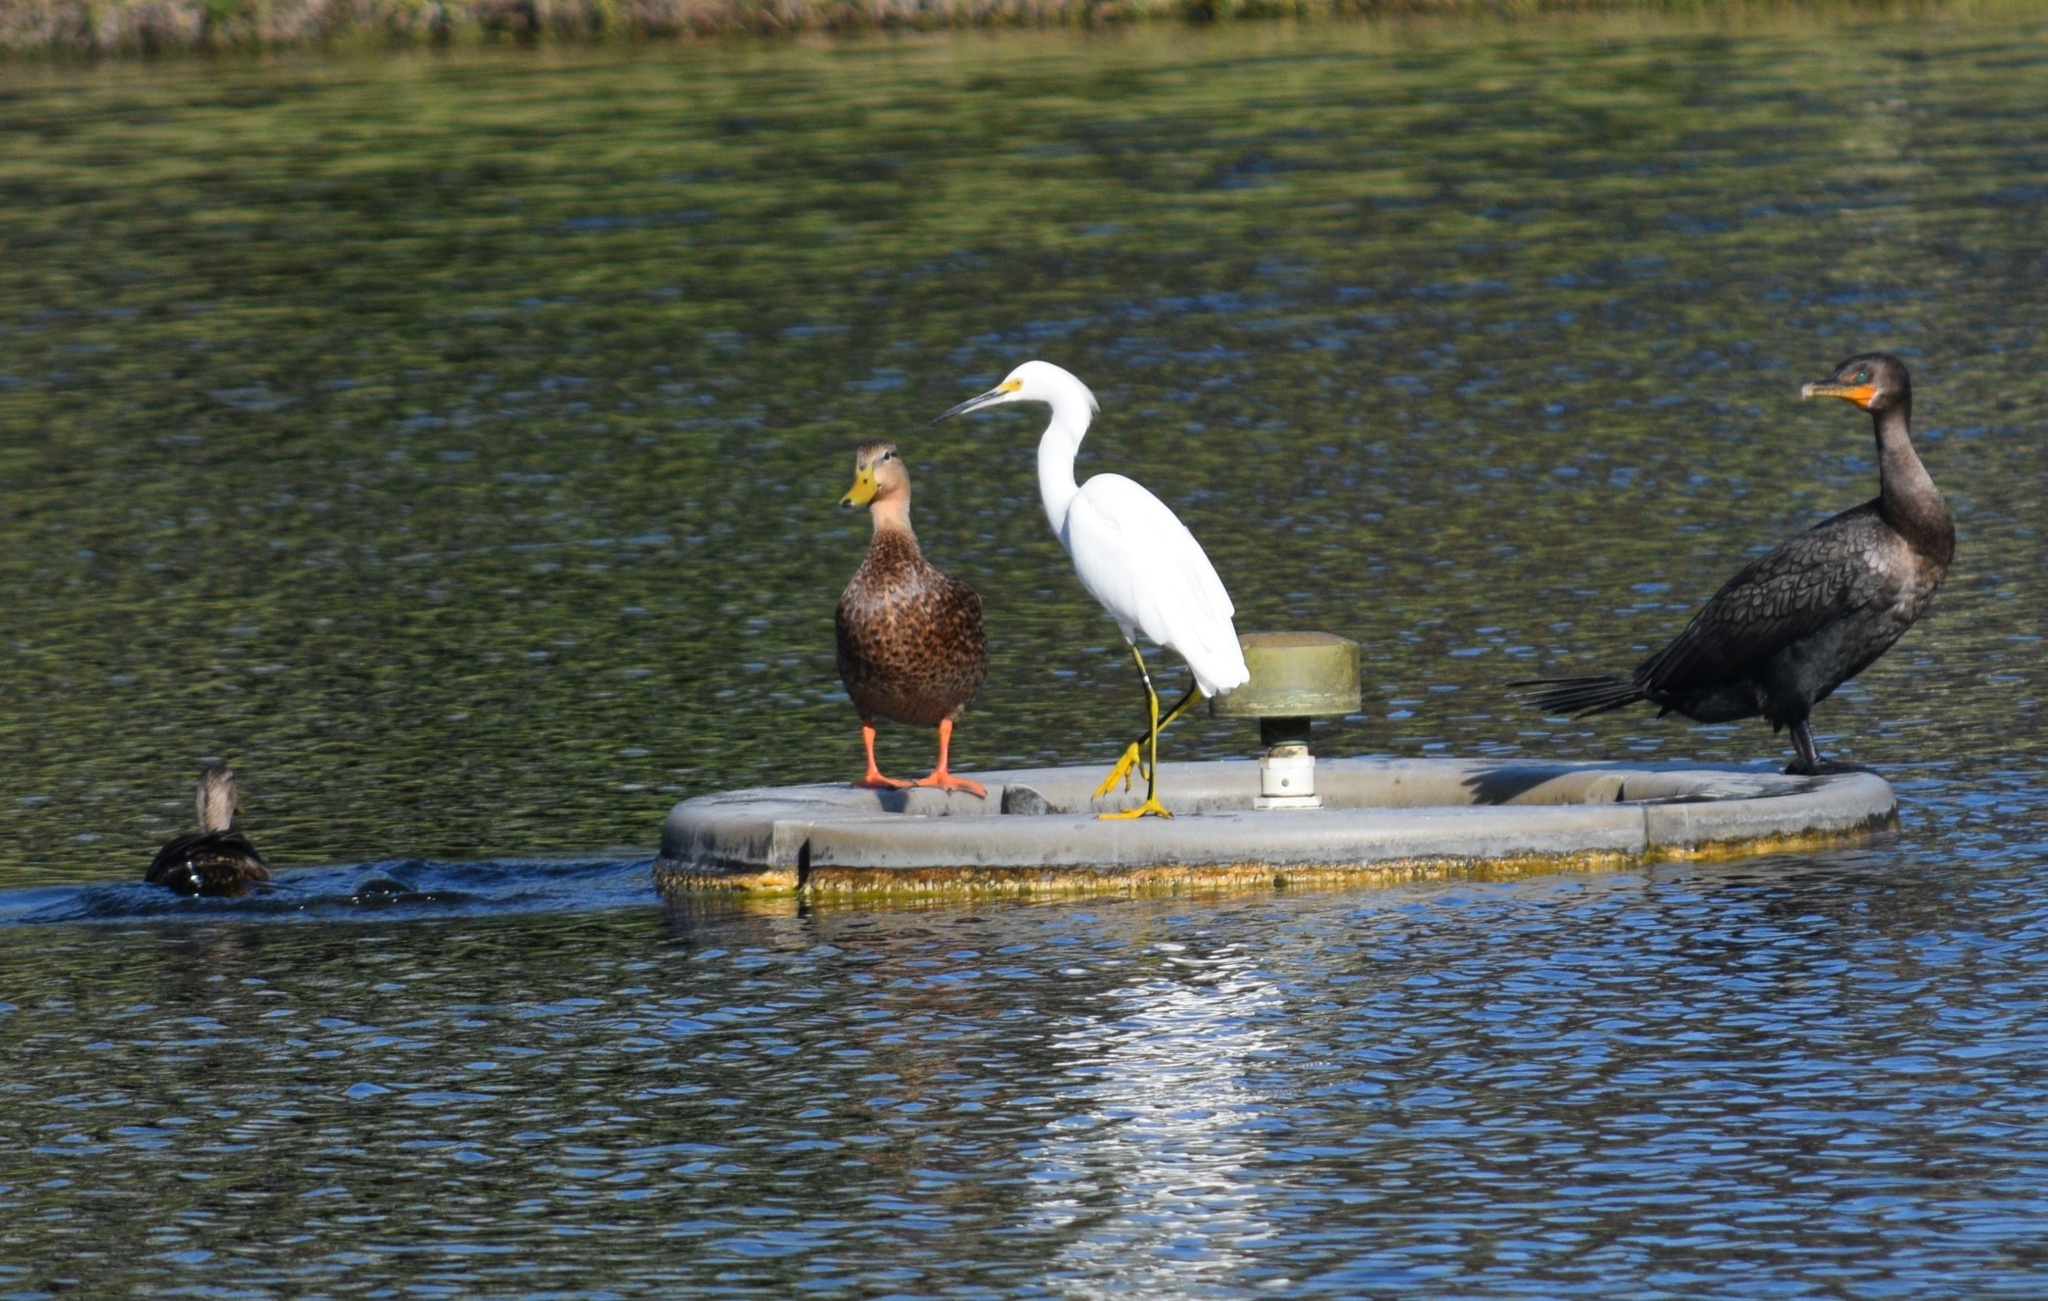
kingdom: Animalia
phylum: Chordata
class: Aves
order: Anseriformes
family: Anatidae
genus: Anas
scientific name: Anas fulvigula
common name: Mottled duck
